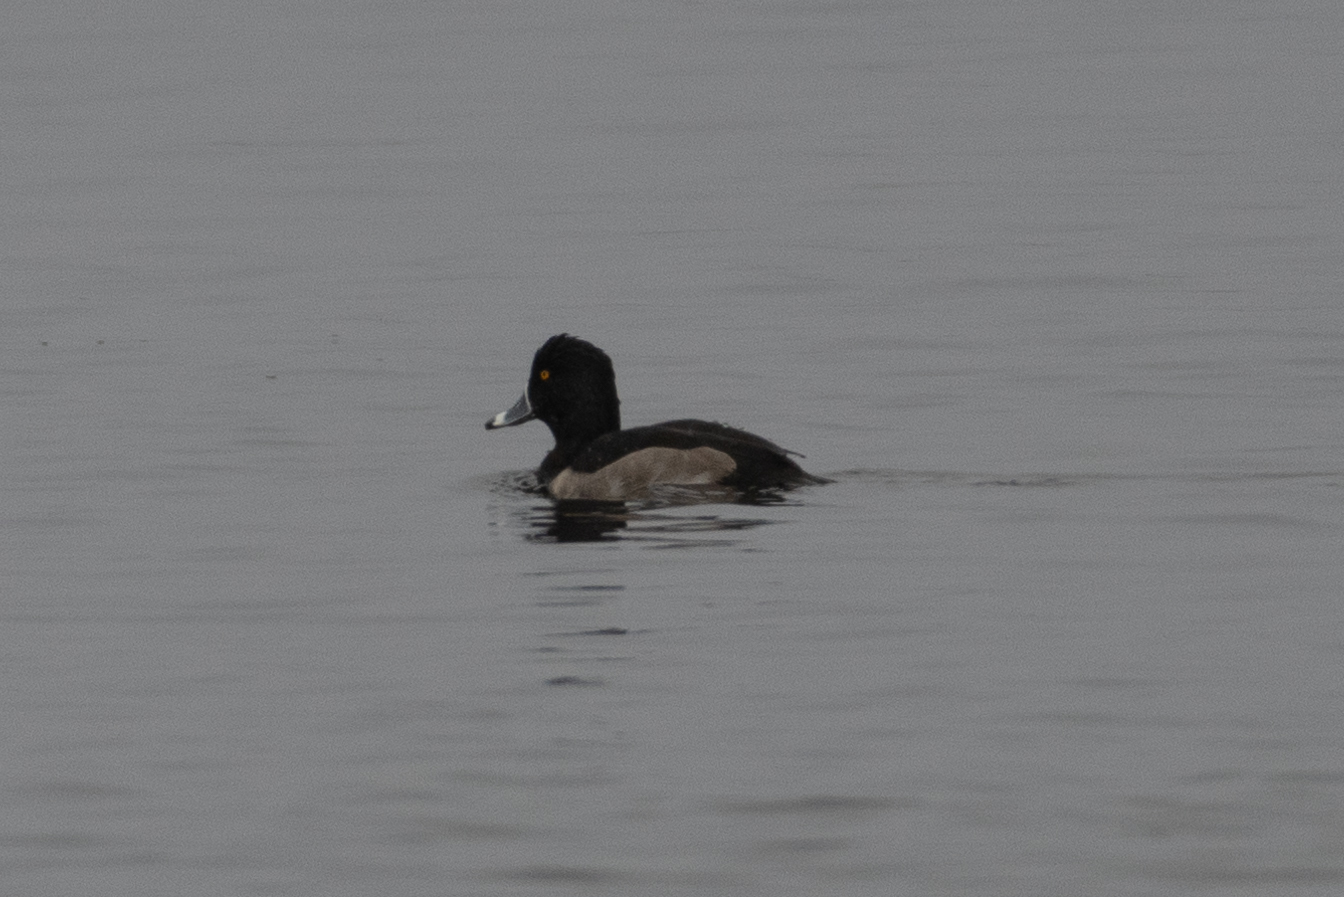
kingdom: Animalia
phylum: Chordata
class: Aves
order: Anseriformes
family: Anatidae
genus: Aythya
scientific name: Aythya collaris
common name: Ring-necked duck
